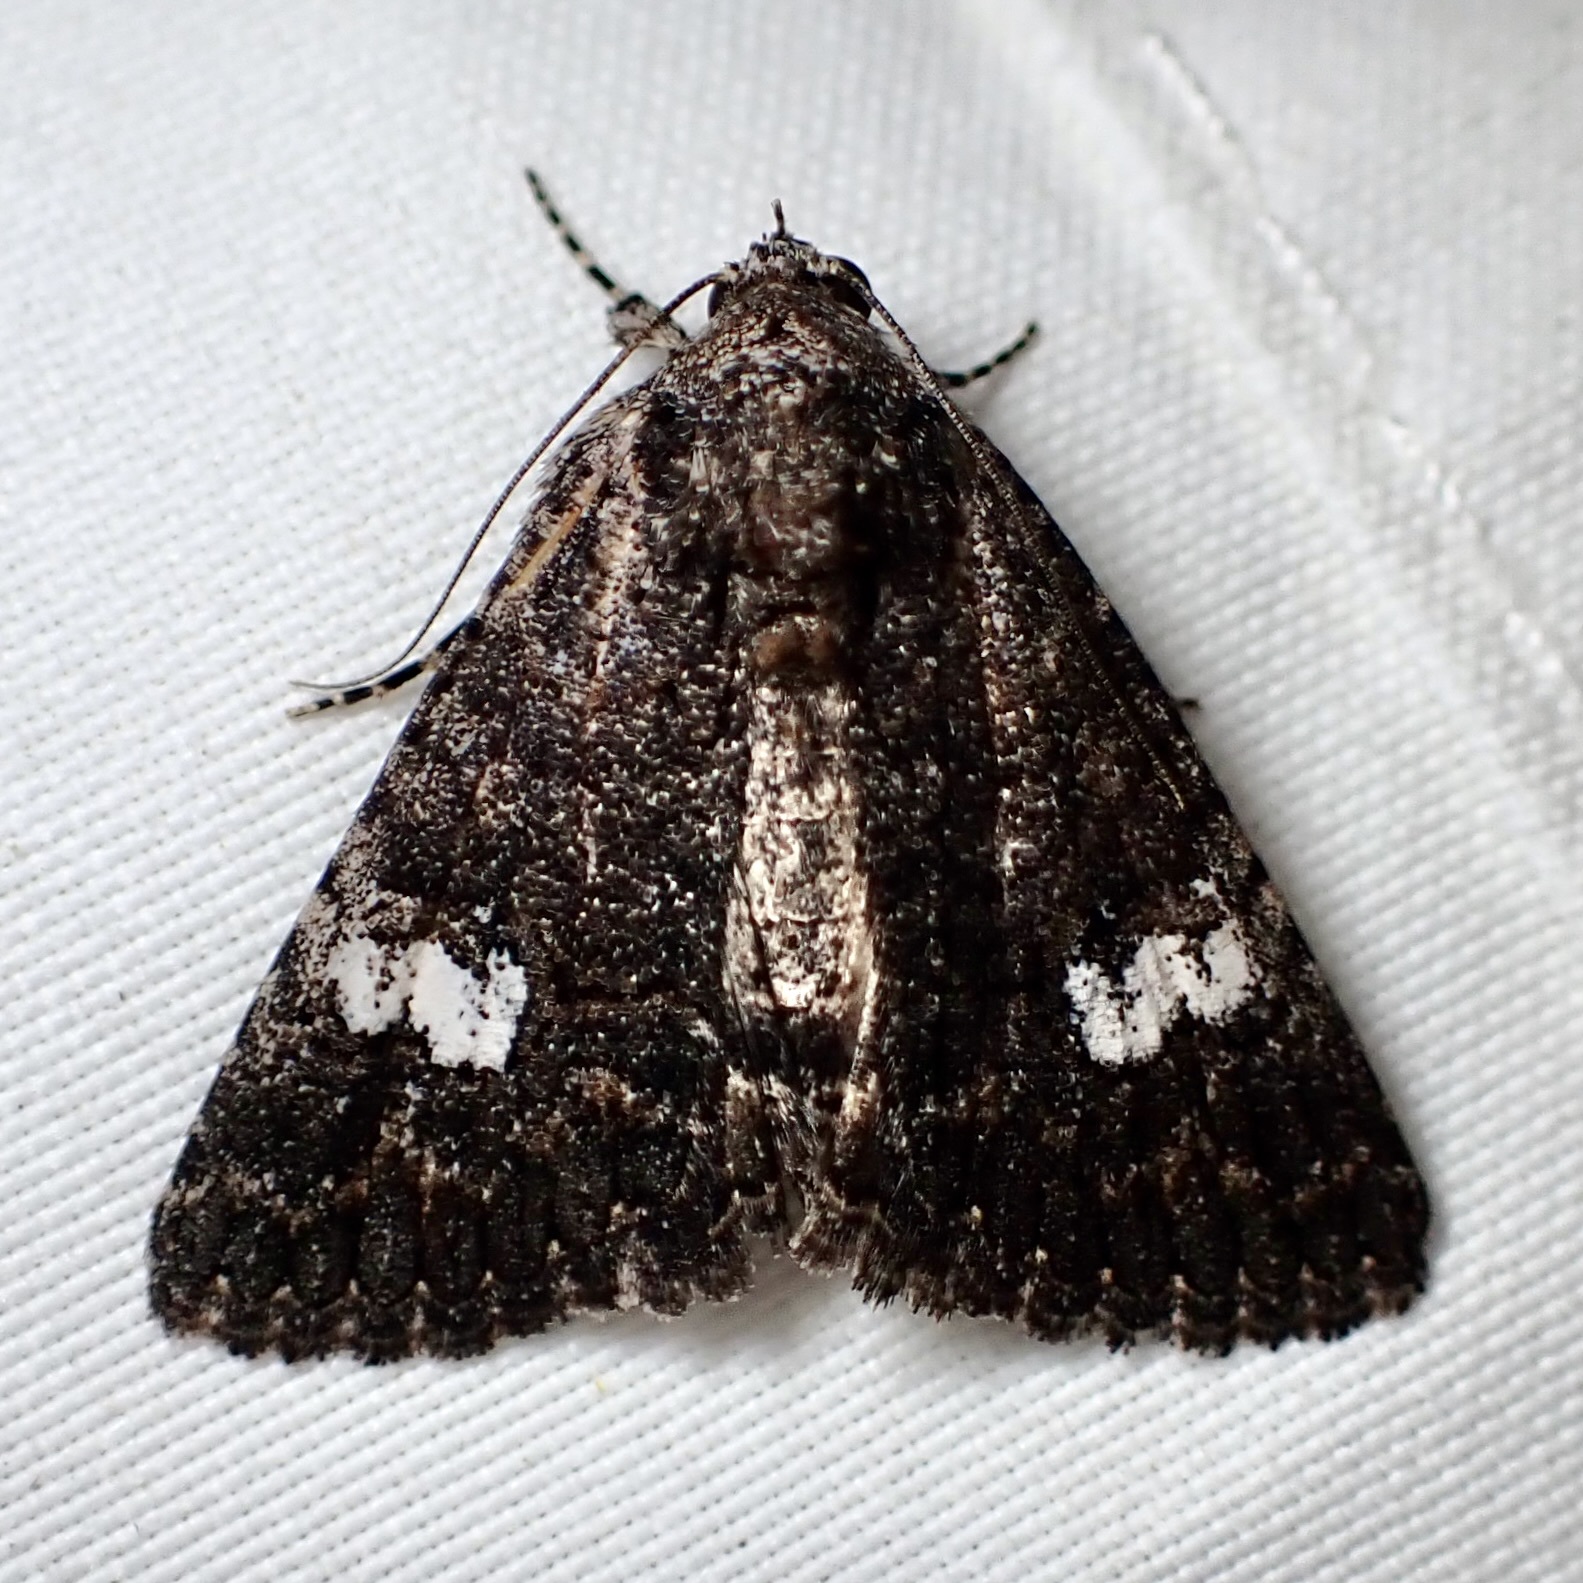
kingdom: Animalia
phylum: Arthropoda
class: Insecta
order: Lepidoptera
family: Erebidae
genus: Elousa
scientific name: Elousa mima
